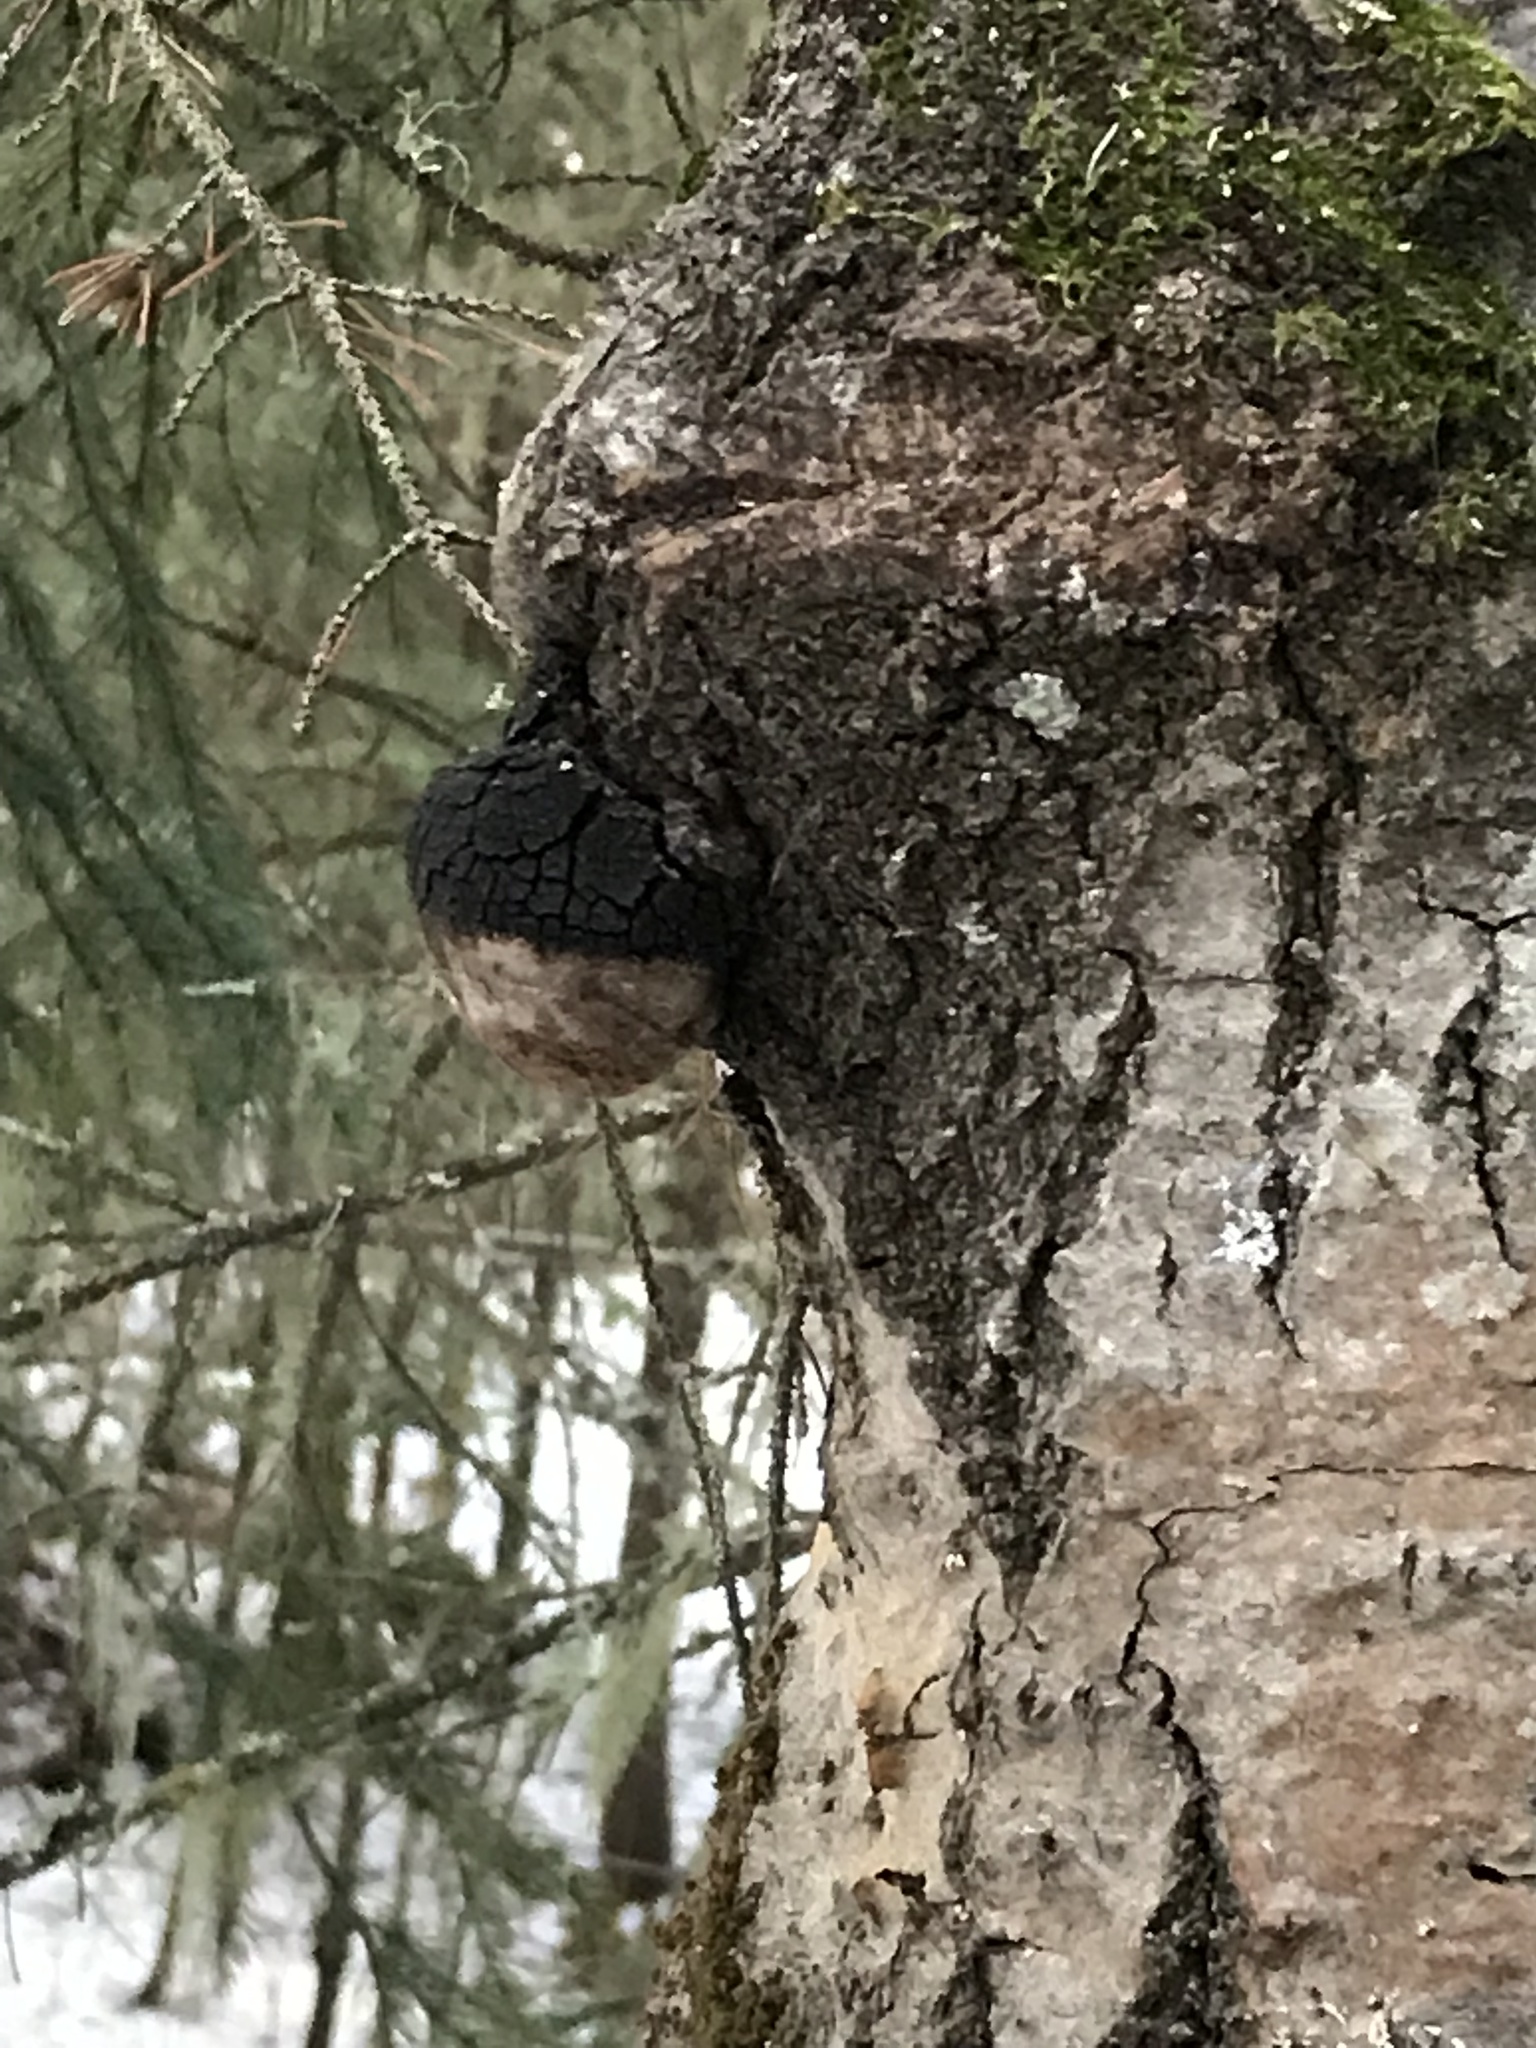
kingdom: Fungi
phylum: Basidiomycota
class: Agaricomycetes
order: Hymenochaetales
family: Hymenochaetaceae
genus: Phellinus
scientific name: Phellinus tremulae
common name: Aspen bracket
